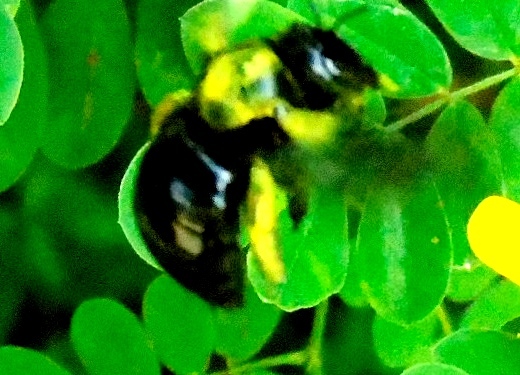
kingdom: Animalia
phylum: Arthropoda
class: Insecta
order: Hymenoptera
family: Apidae
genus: Xylocopa
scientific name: Xylocopa
